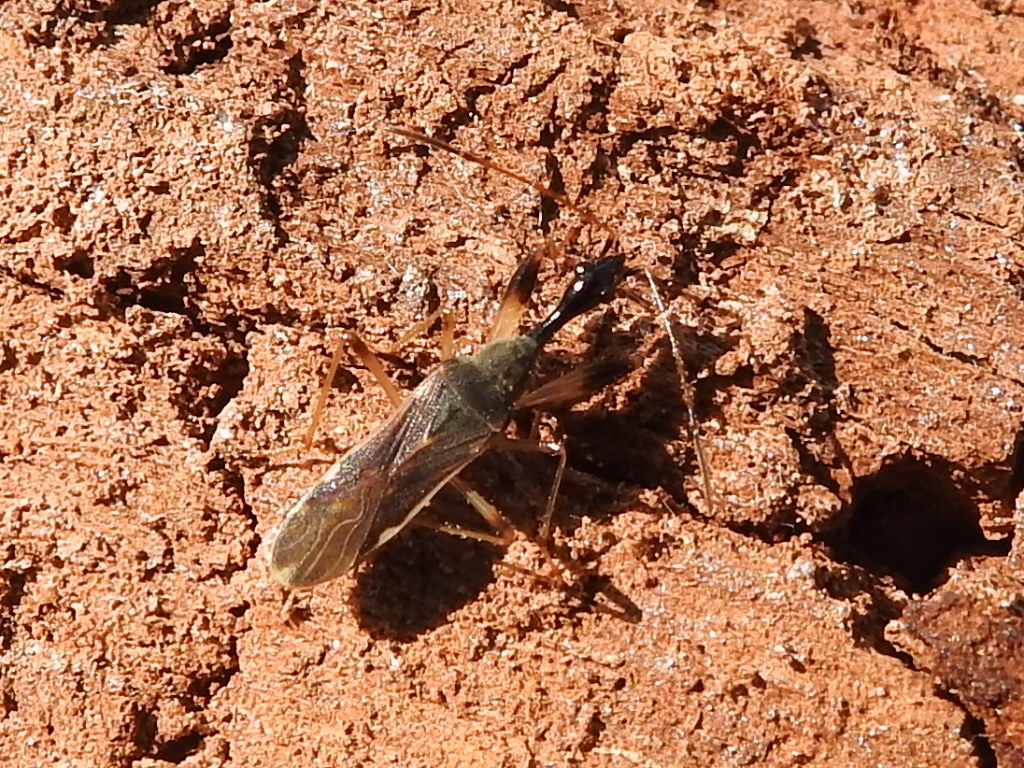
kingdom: Animalia
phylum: Arthropoda
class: Insecta
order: Hemiptera
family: Rhyparochromidae
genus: Myodocha
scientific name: Myodocha serripes
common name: Long-necked seed bug
